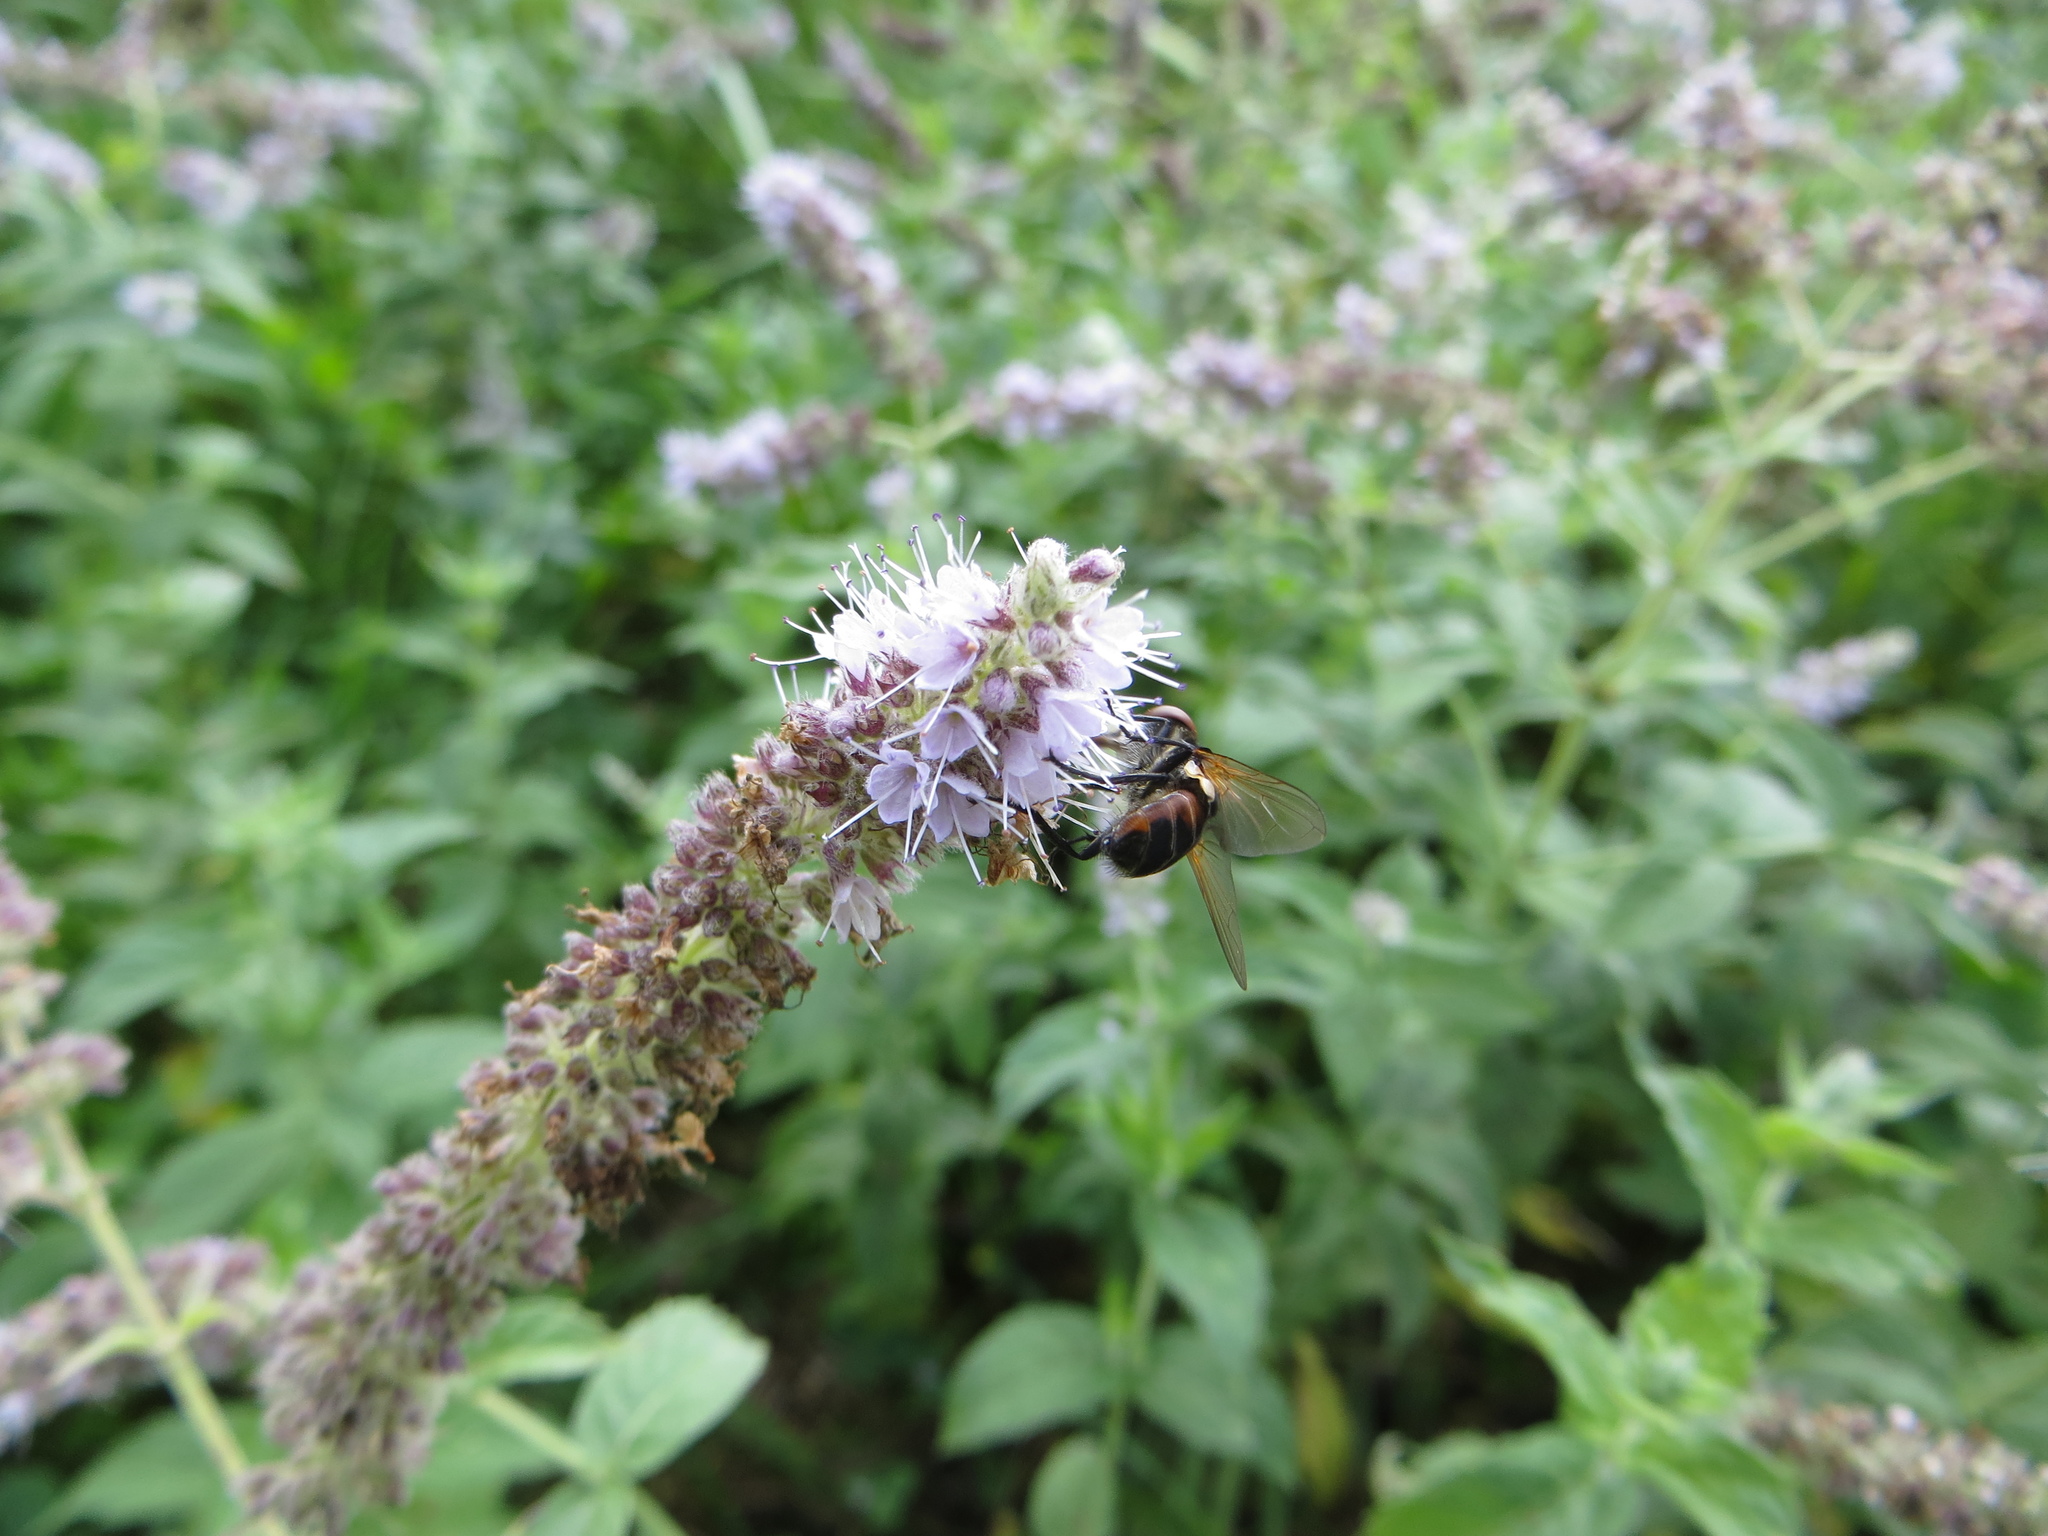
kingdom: Animalia
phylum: Arthropoda
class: Insecta
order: Diptera
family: Tachinidae
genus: Phasia
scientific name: Phasia aurigera
